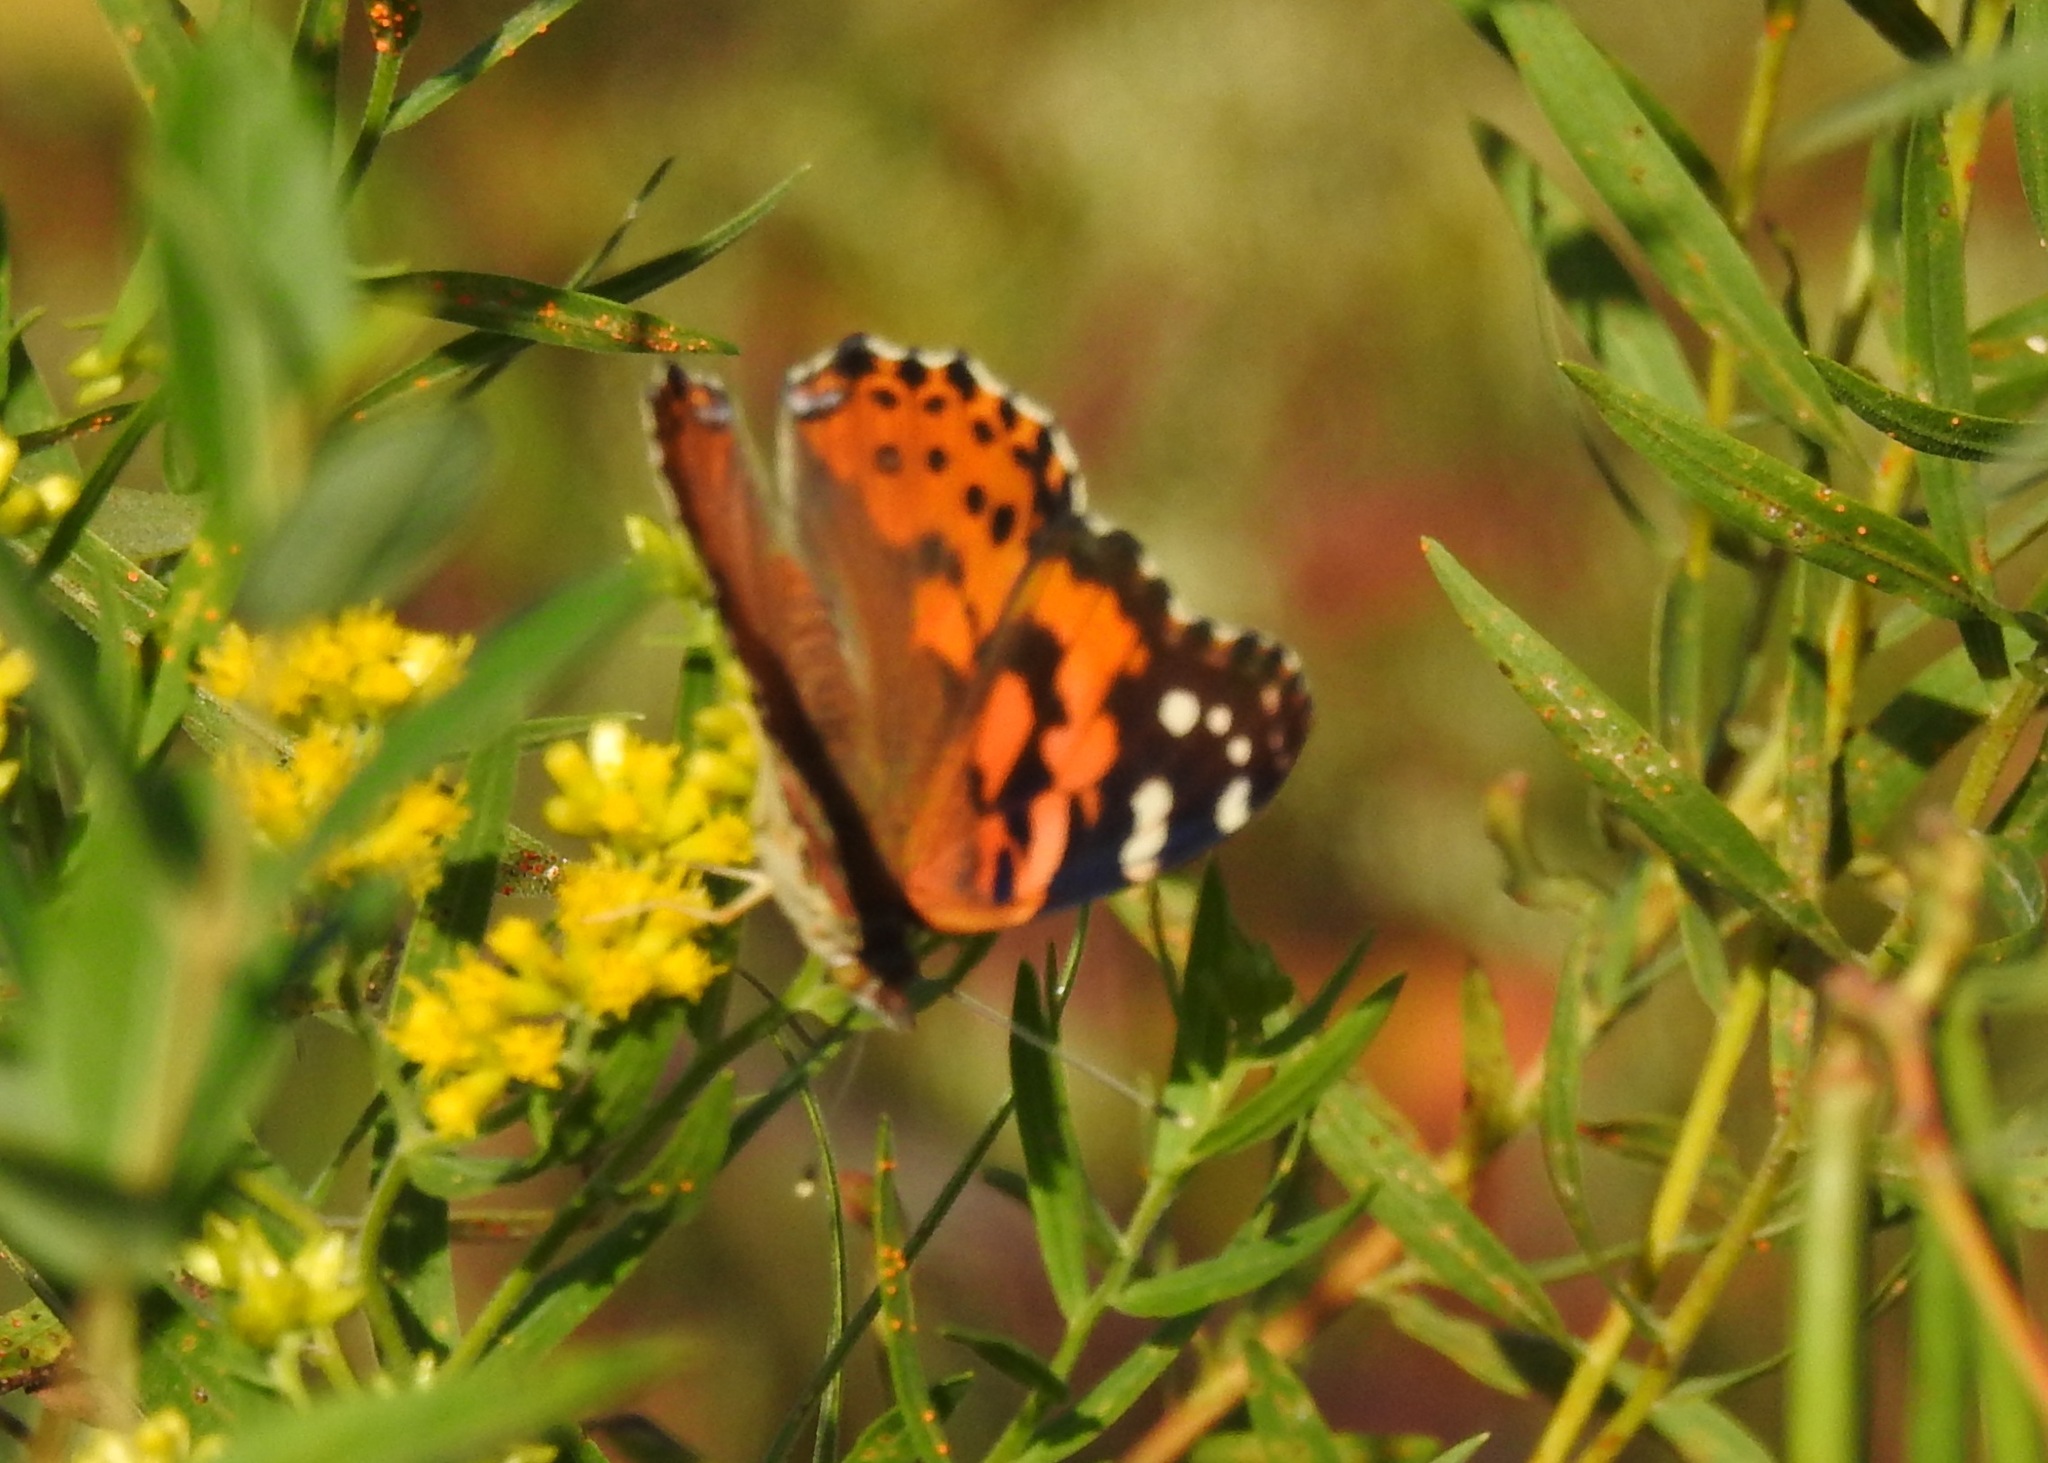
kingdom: Animalia
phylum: Arthropoda
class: Insecta
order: Lepidoptera
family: Nymphalidae
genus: Vanessa
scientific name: Vanessa cardui
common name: Painted lady
